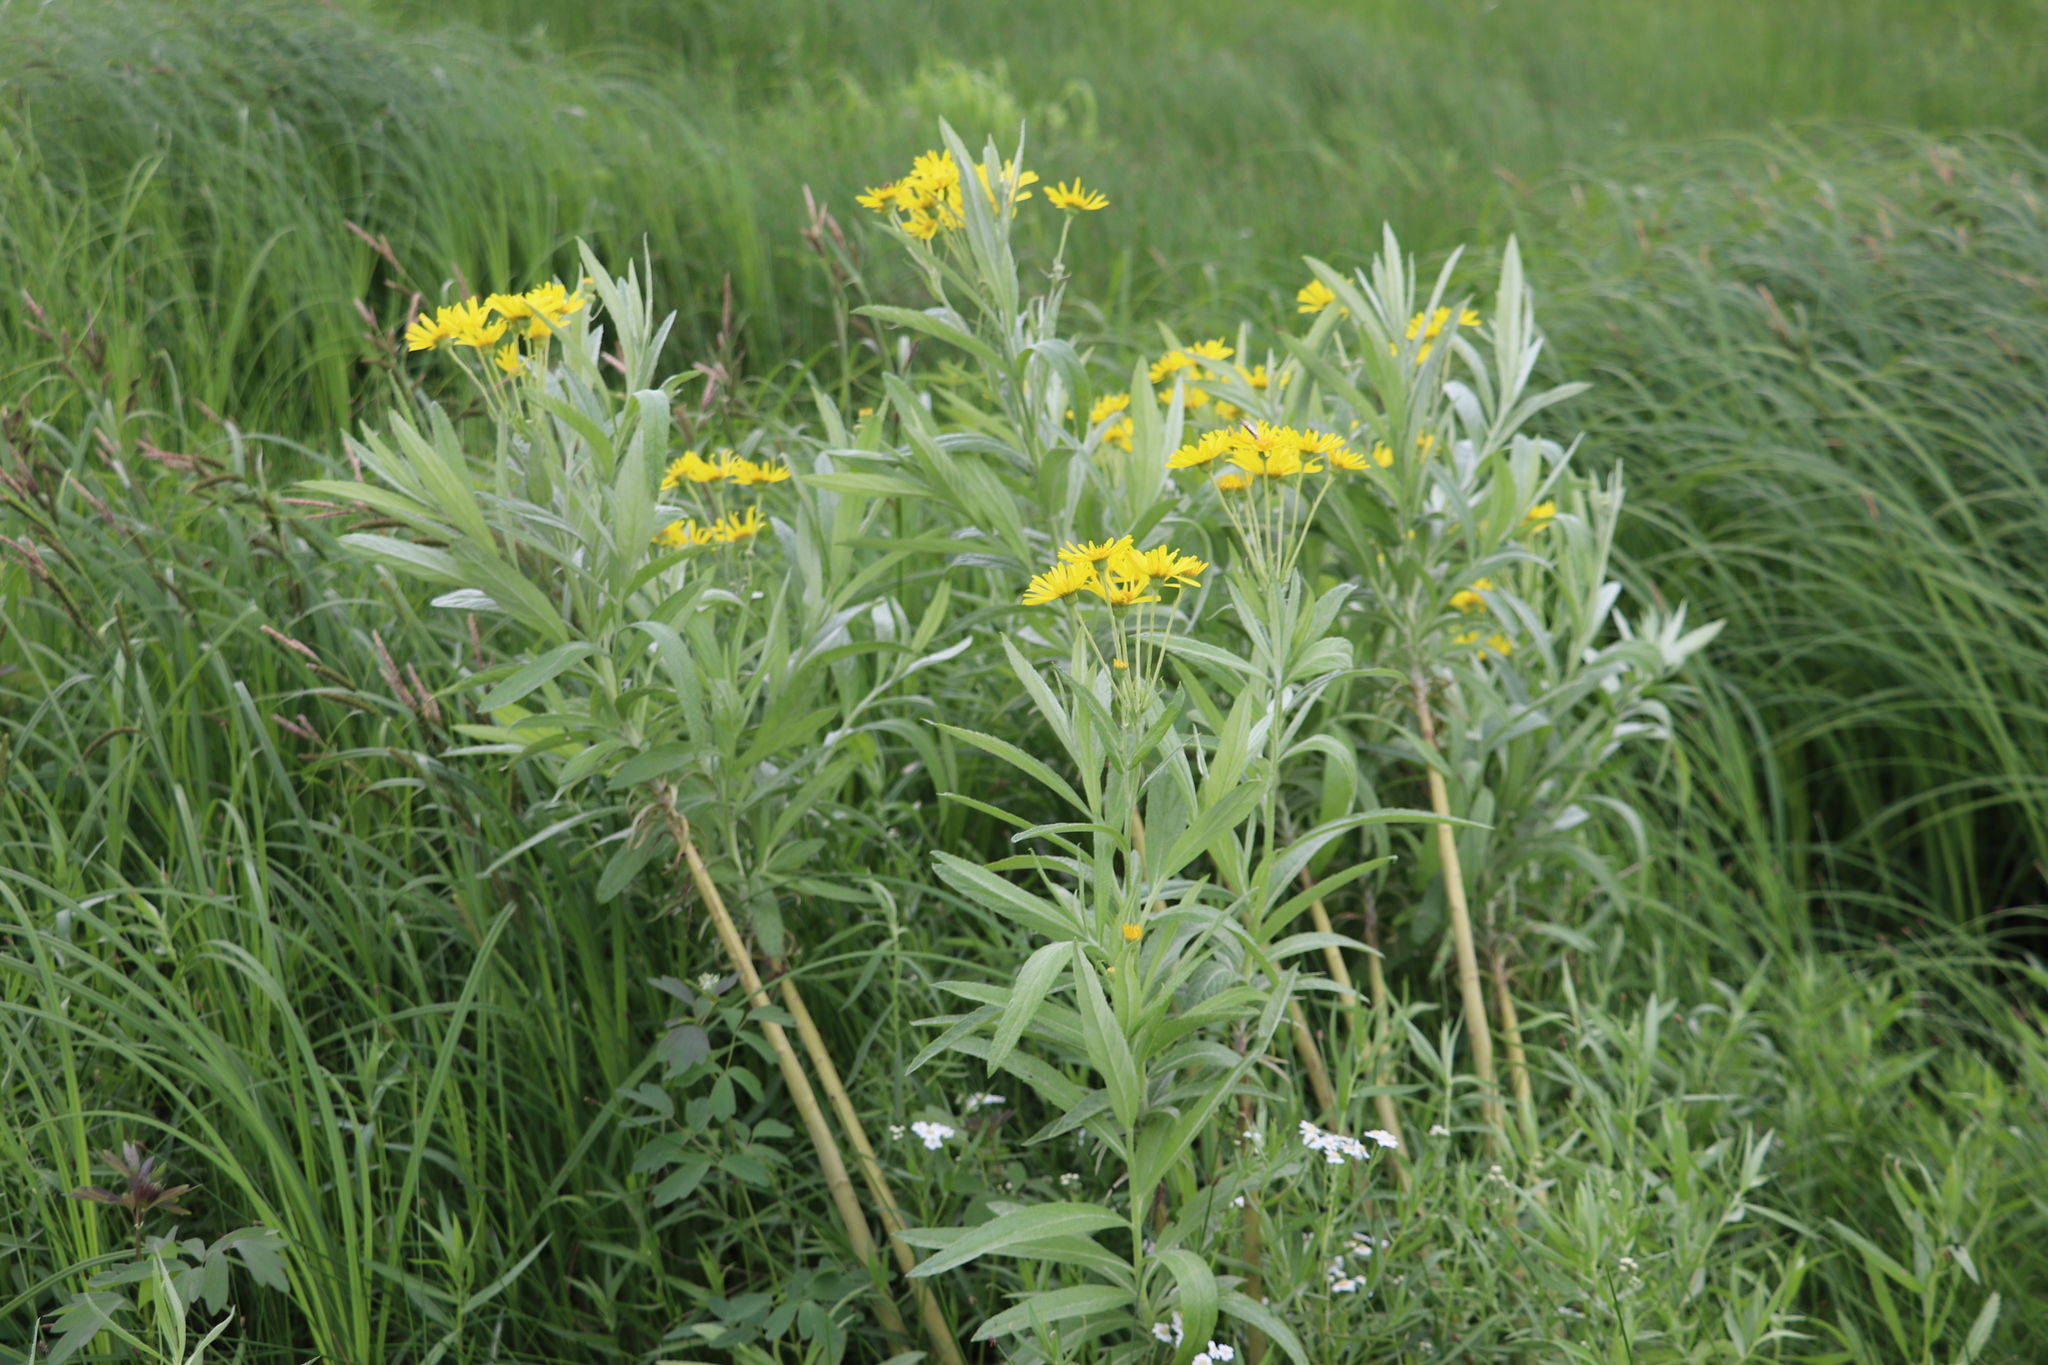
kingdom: Plantae
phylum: Tracheophyta
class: Magnoliopsida
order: Asterales
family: Asteraceae
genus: Jacobaea
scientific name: Jacobaea paludosa
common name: Fen ragwort
